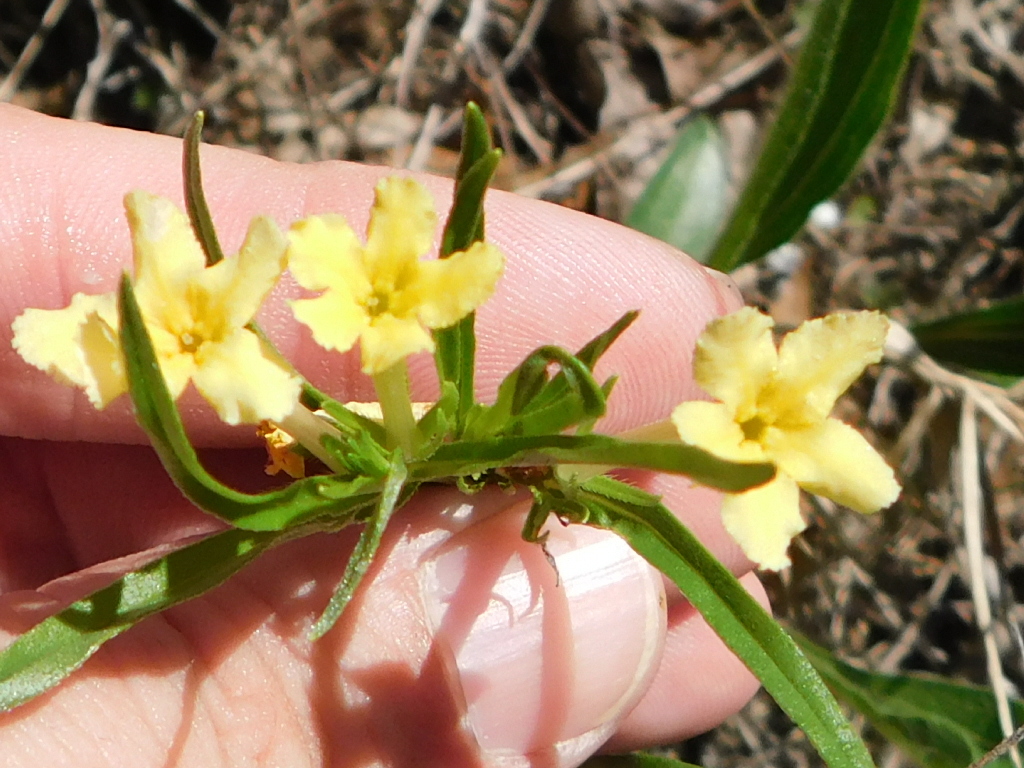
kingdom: Plantae
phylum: Tracheophyta
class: Magnoliopsida
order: Boraginales
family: Boraginaceae
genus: Lithospermum
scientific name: Lithospermum incisum
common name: Fringed gromwell
